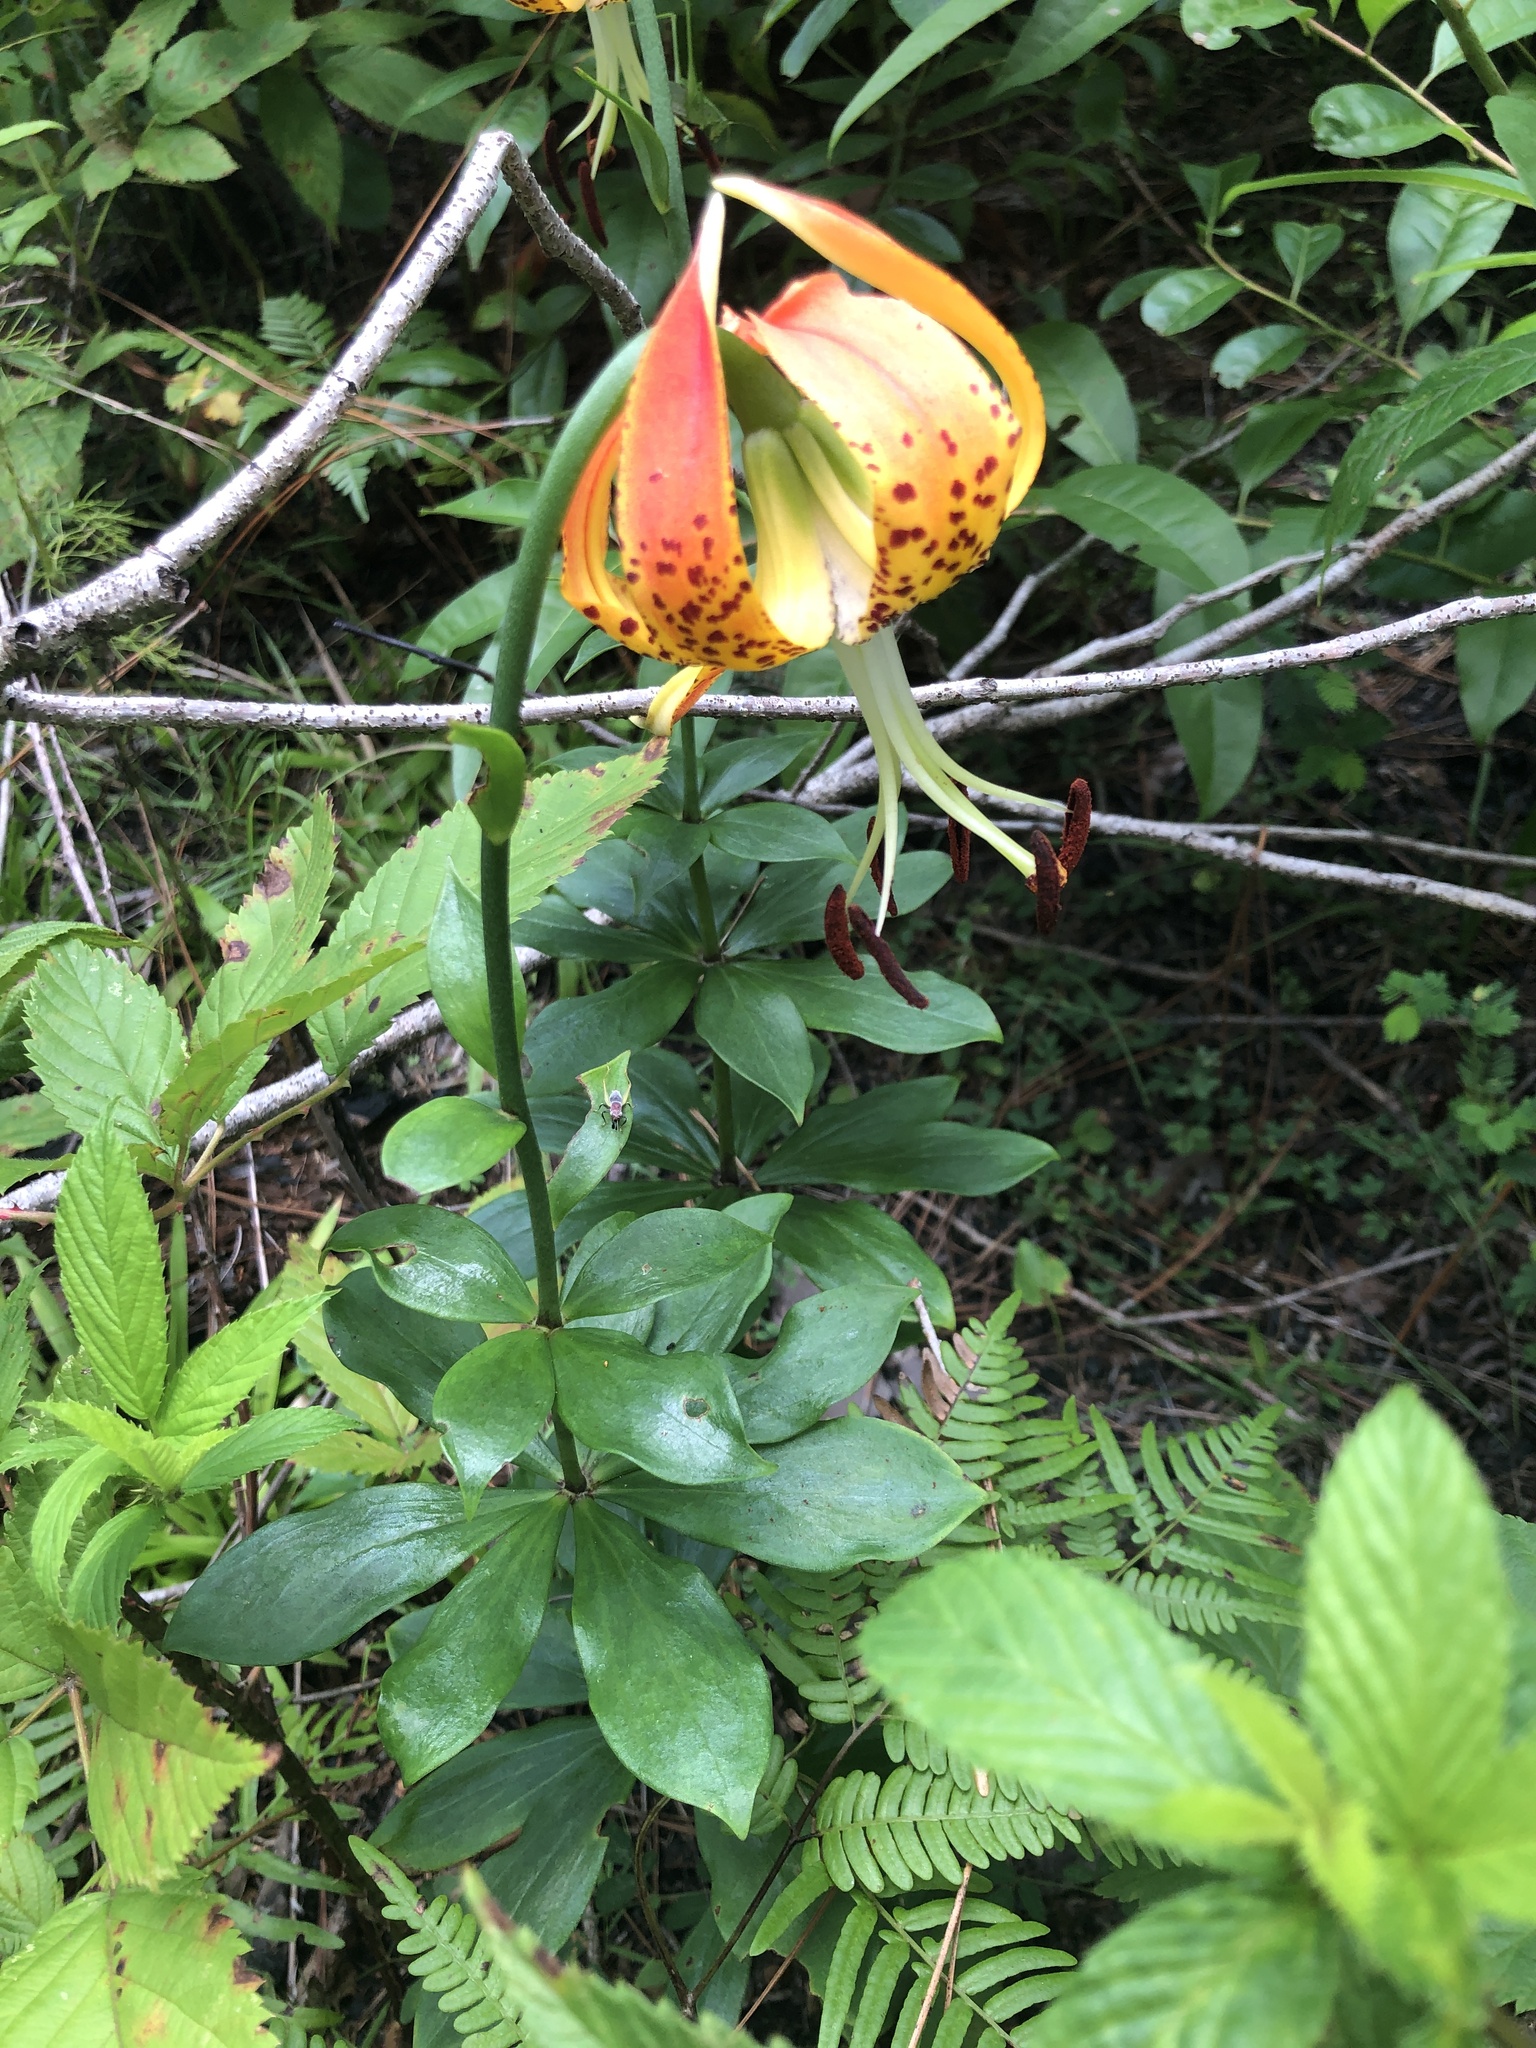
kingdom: Plantae
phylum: Tracheophyta
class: Liliopsida
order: Liliales
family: Liliaceae
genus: Lilium
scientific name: Lilium michauxii
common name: Carolina lily
